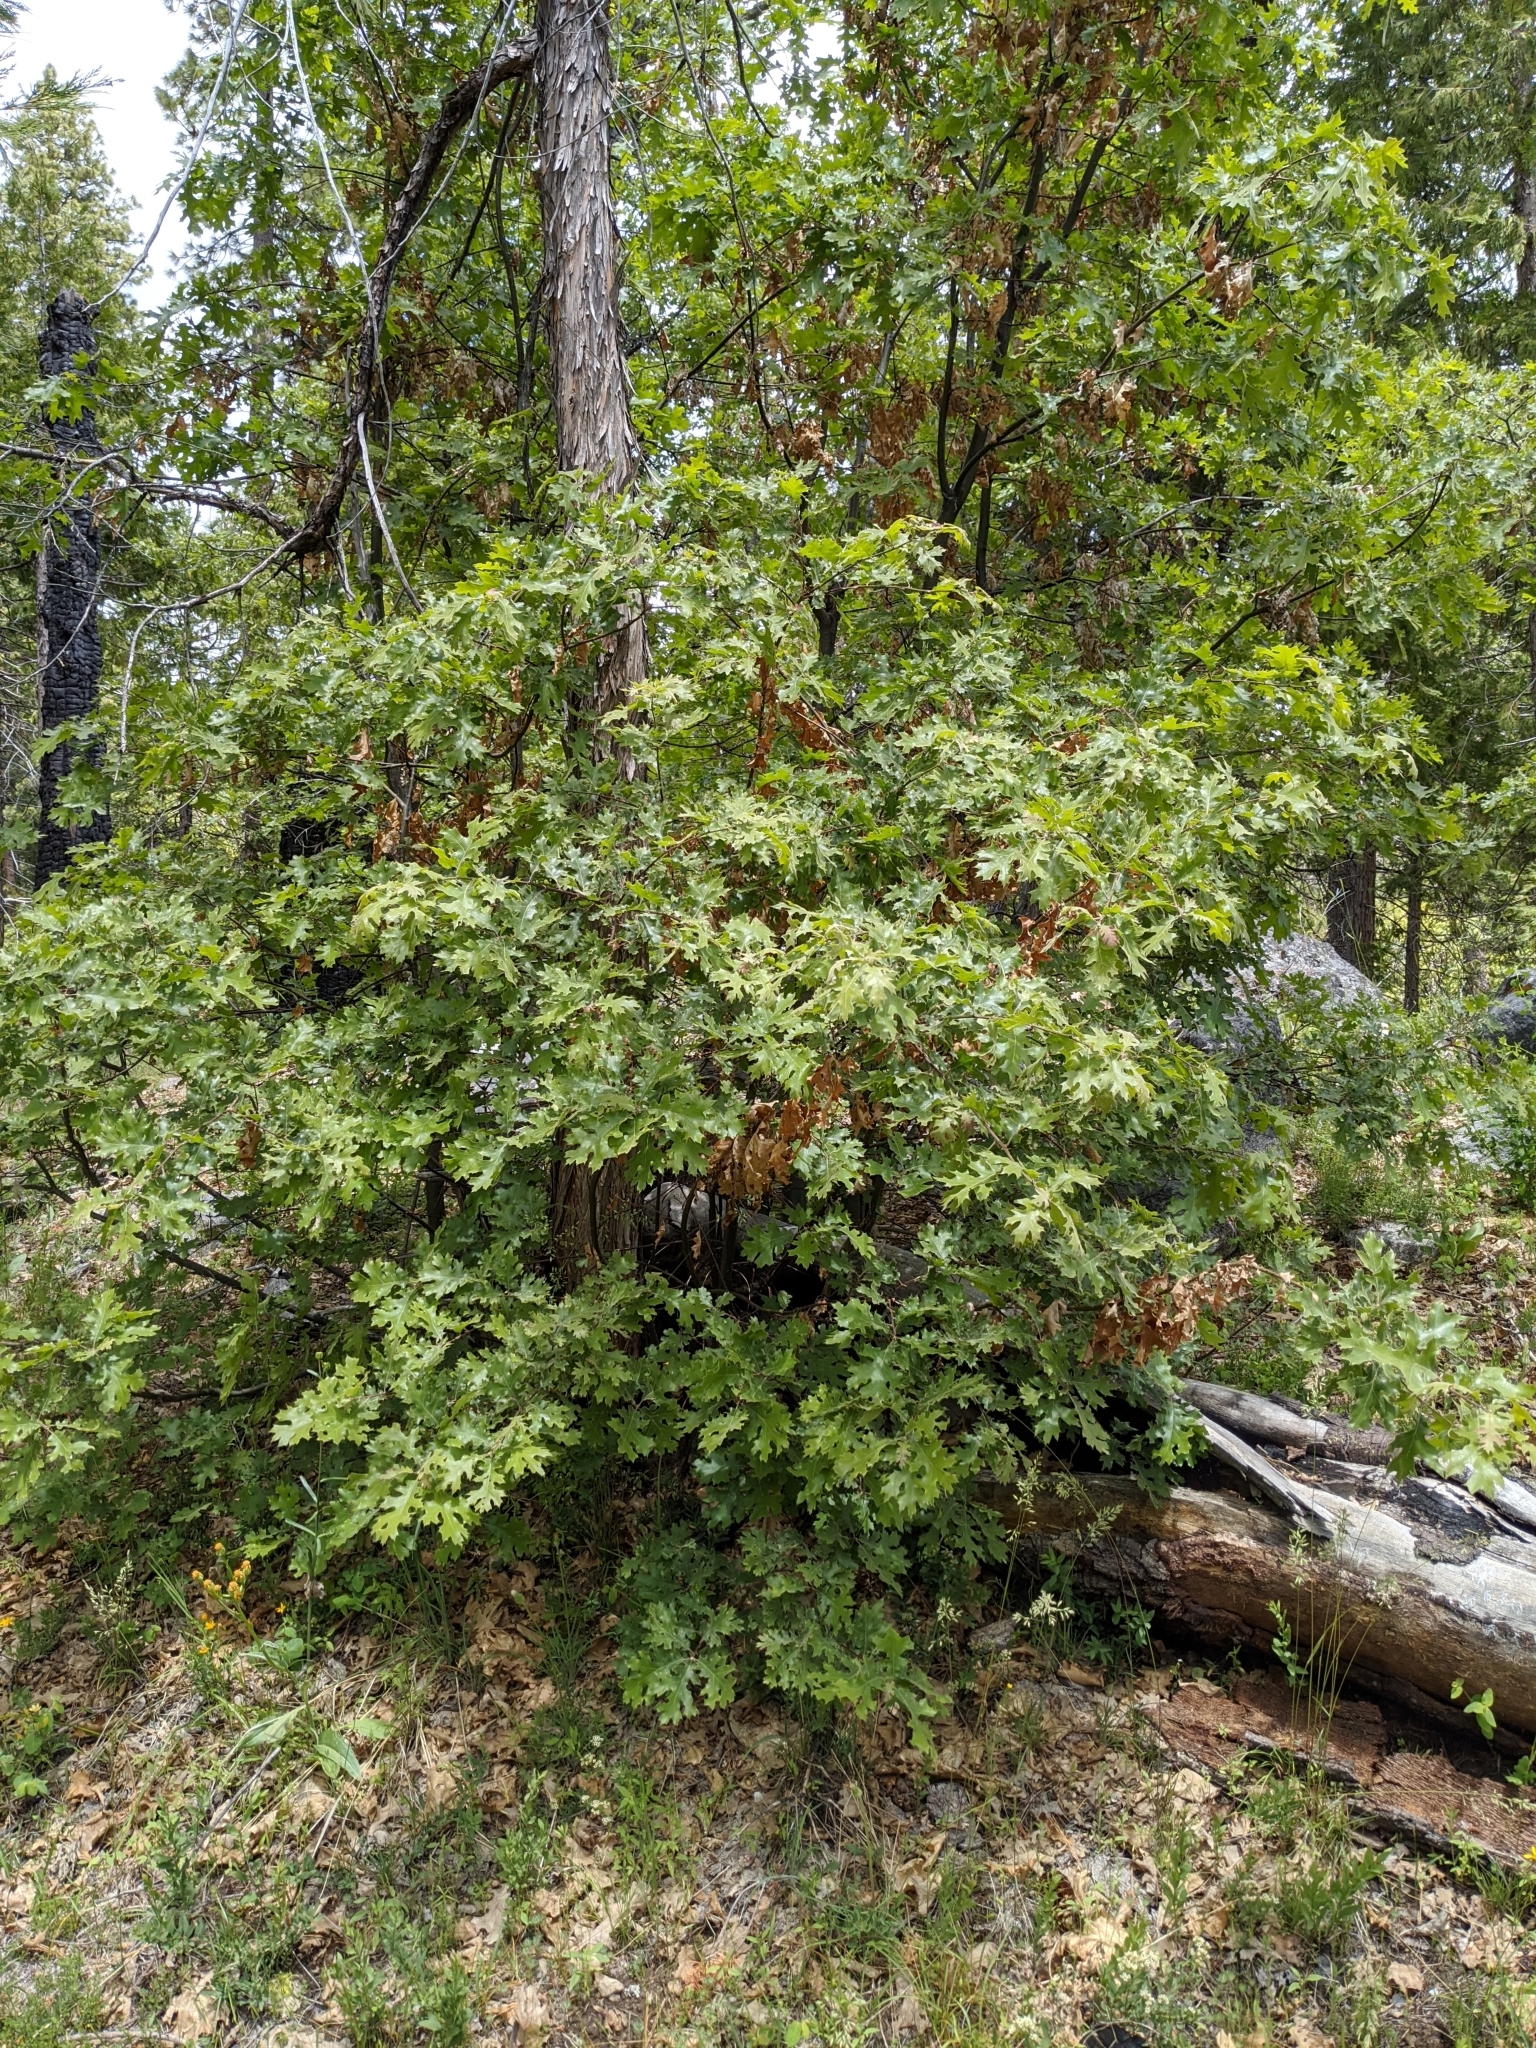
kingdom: Plantae
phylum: Tracheophyta
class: Magnoliopsida
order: Fagales
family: Fagaceae
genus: Quercus
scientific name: Quercus kelloggii
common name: California black oak
